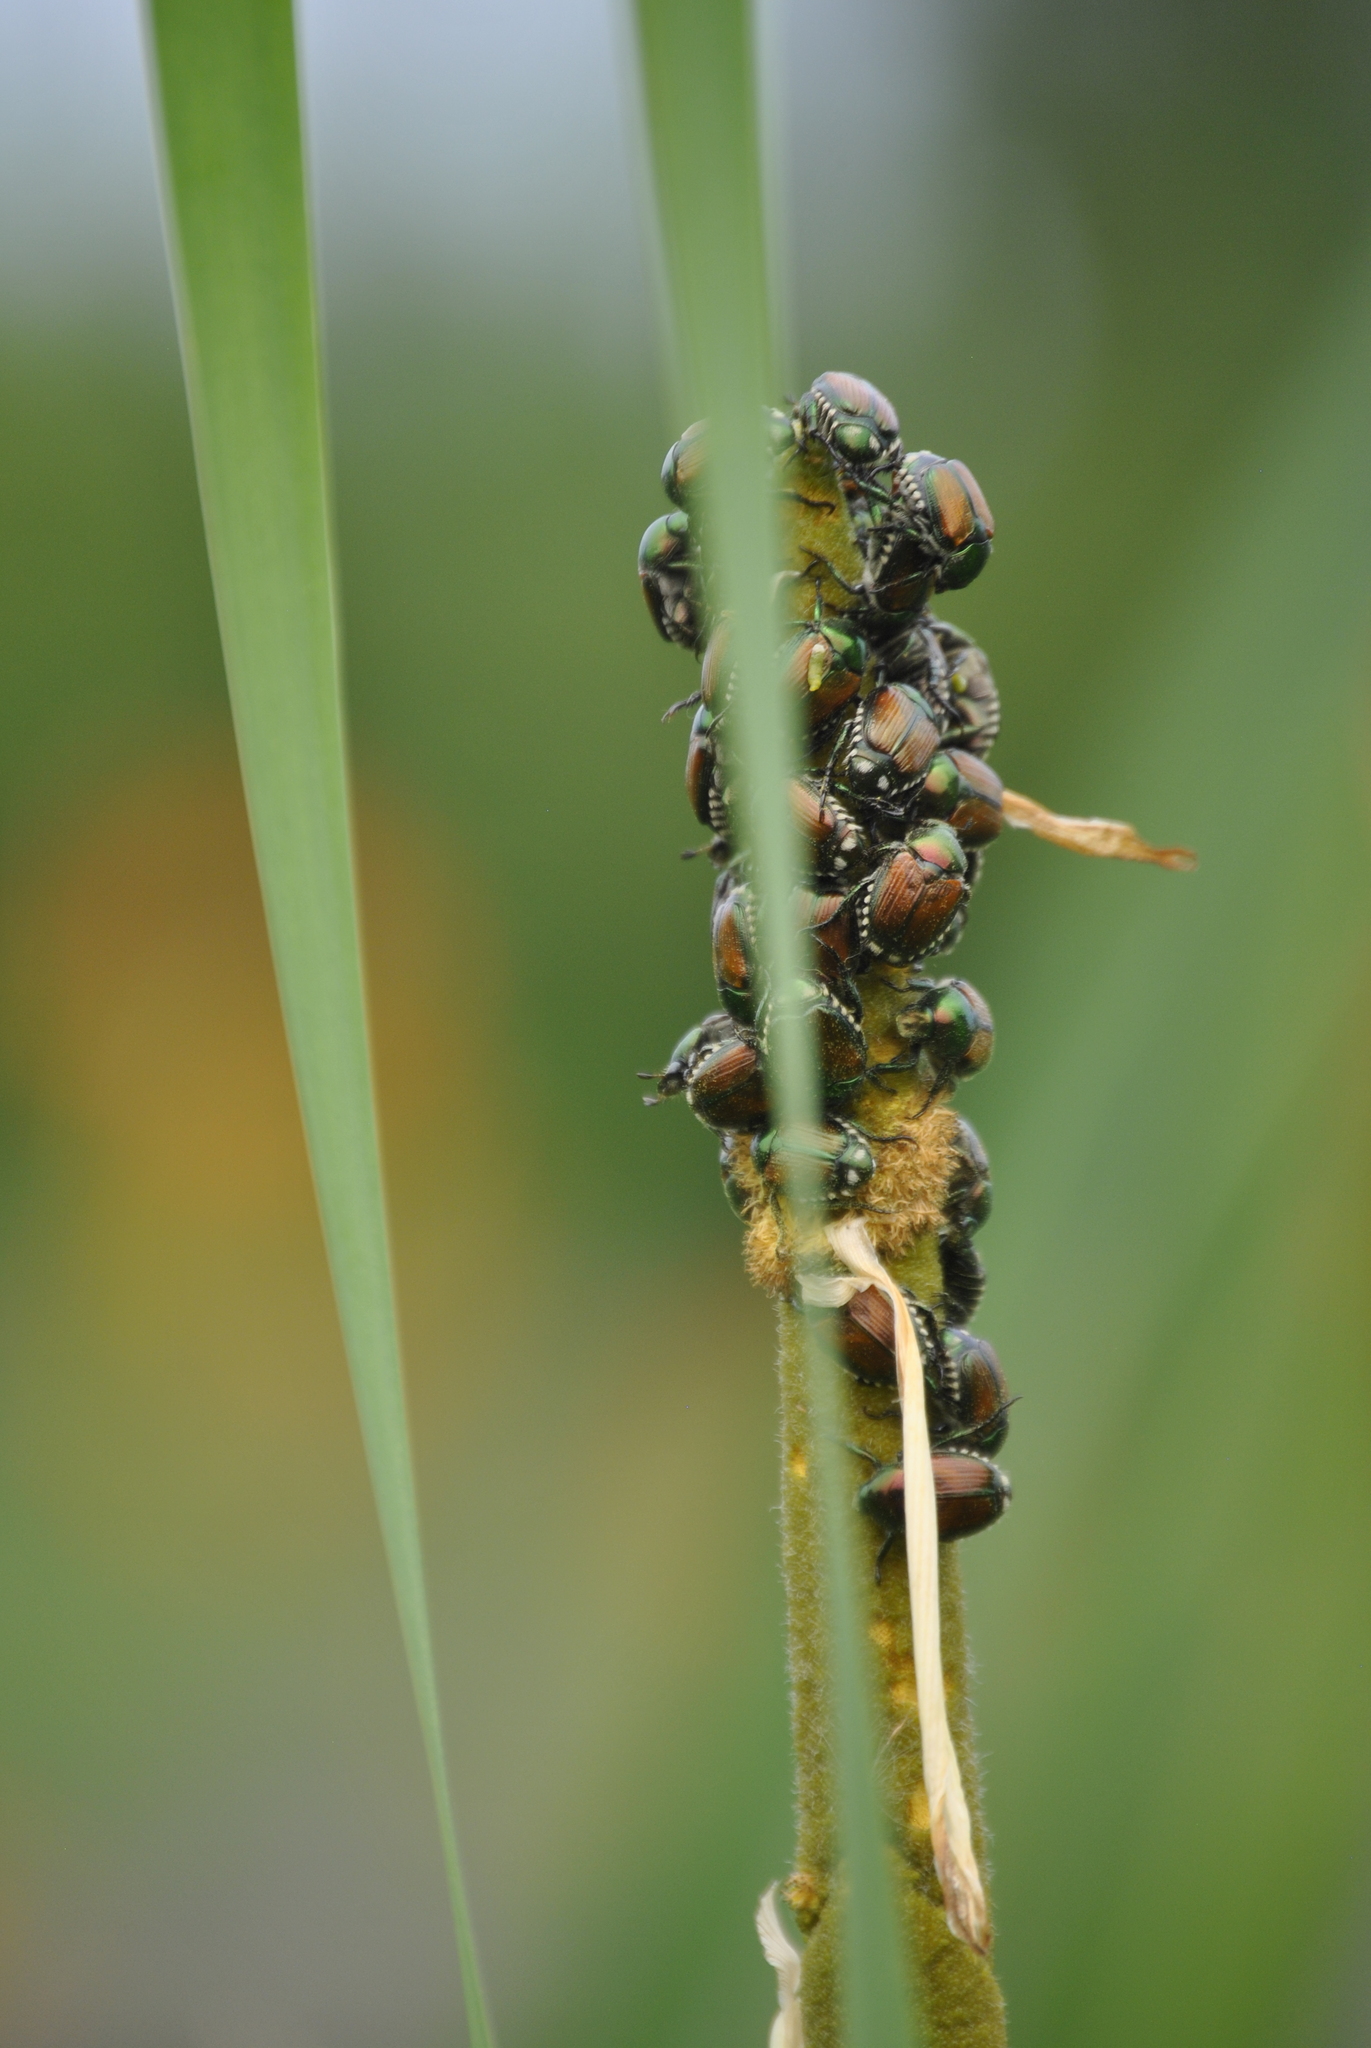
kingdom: Animalia
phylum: Arthropoda
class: Insecta
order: Coleoptera
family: Scarabaeidae
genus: Popillia
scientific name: Popillia japonica
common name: Japanese beetle
